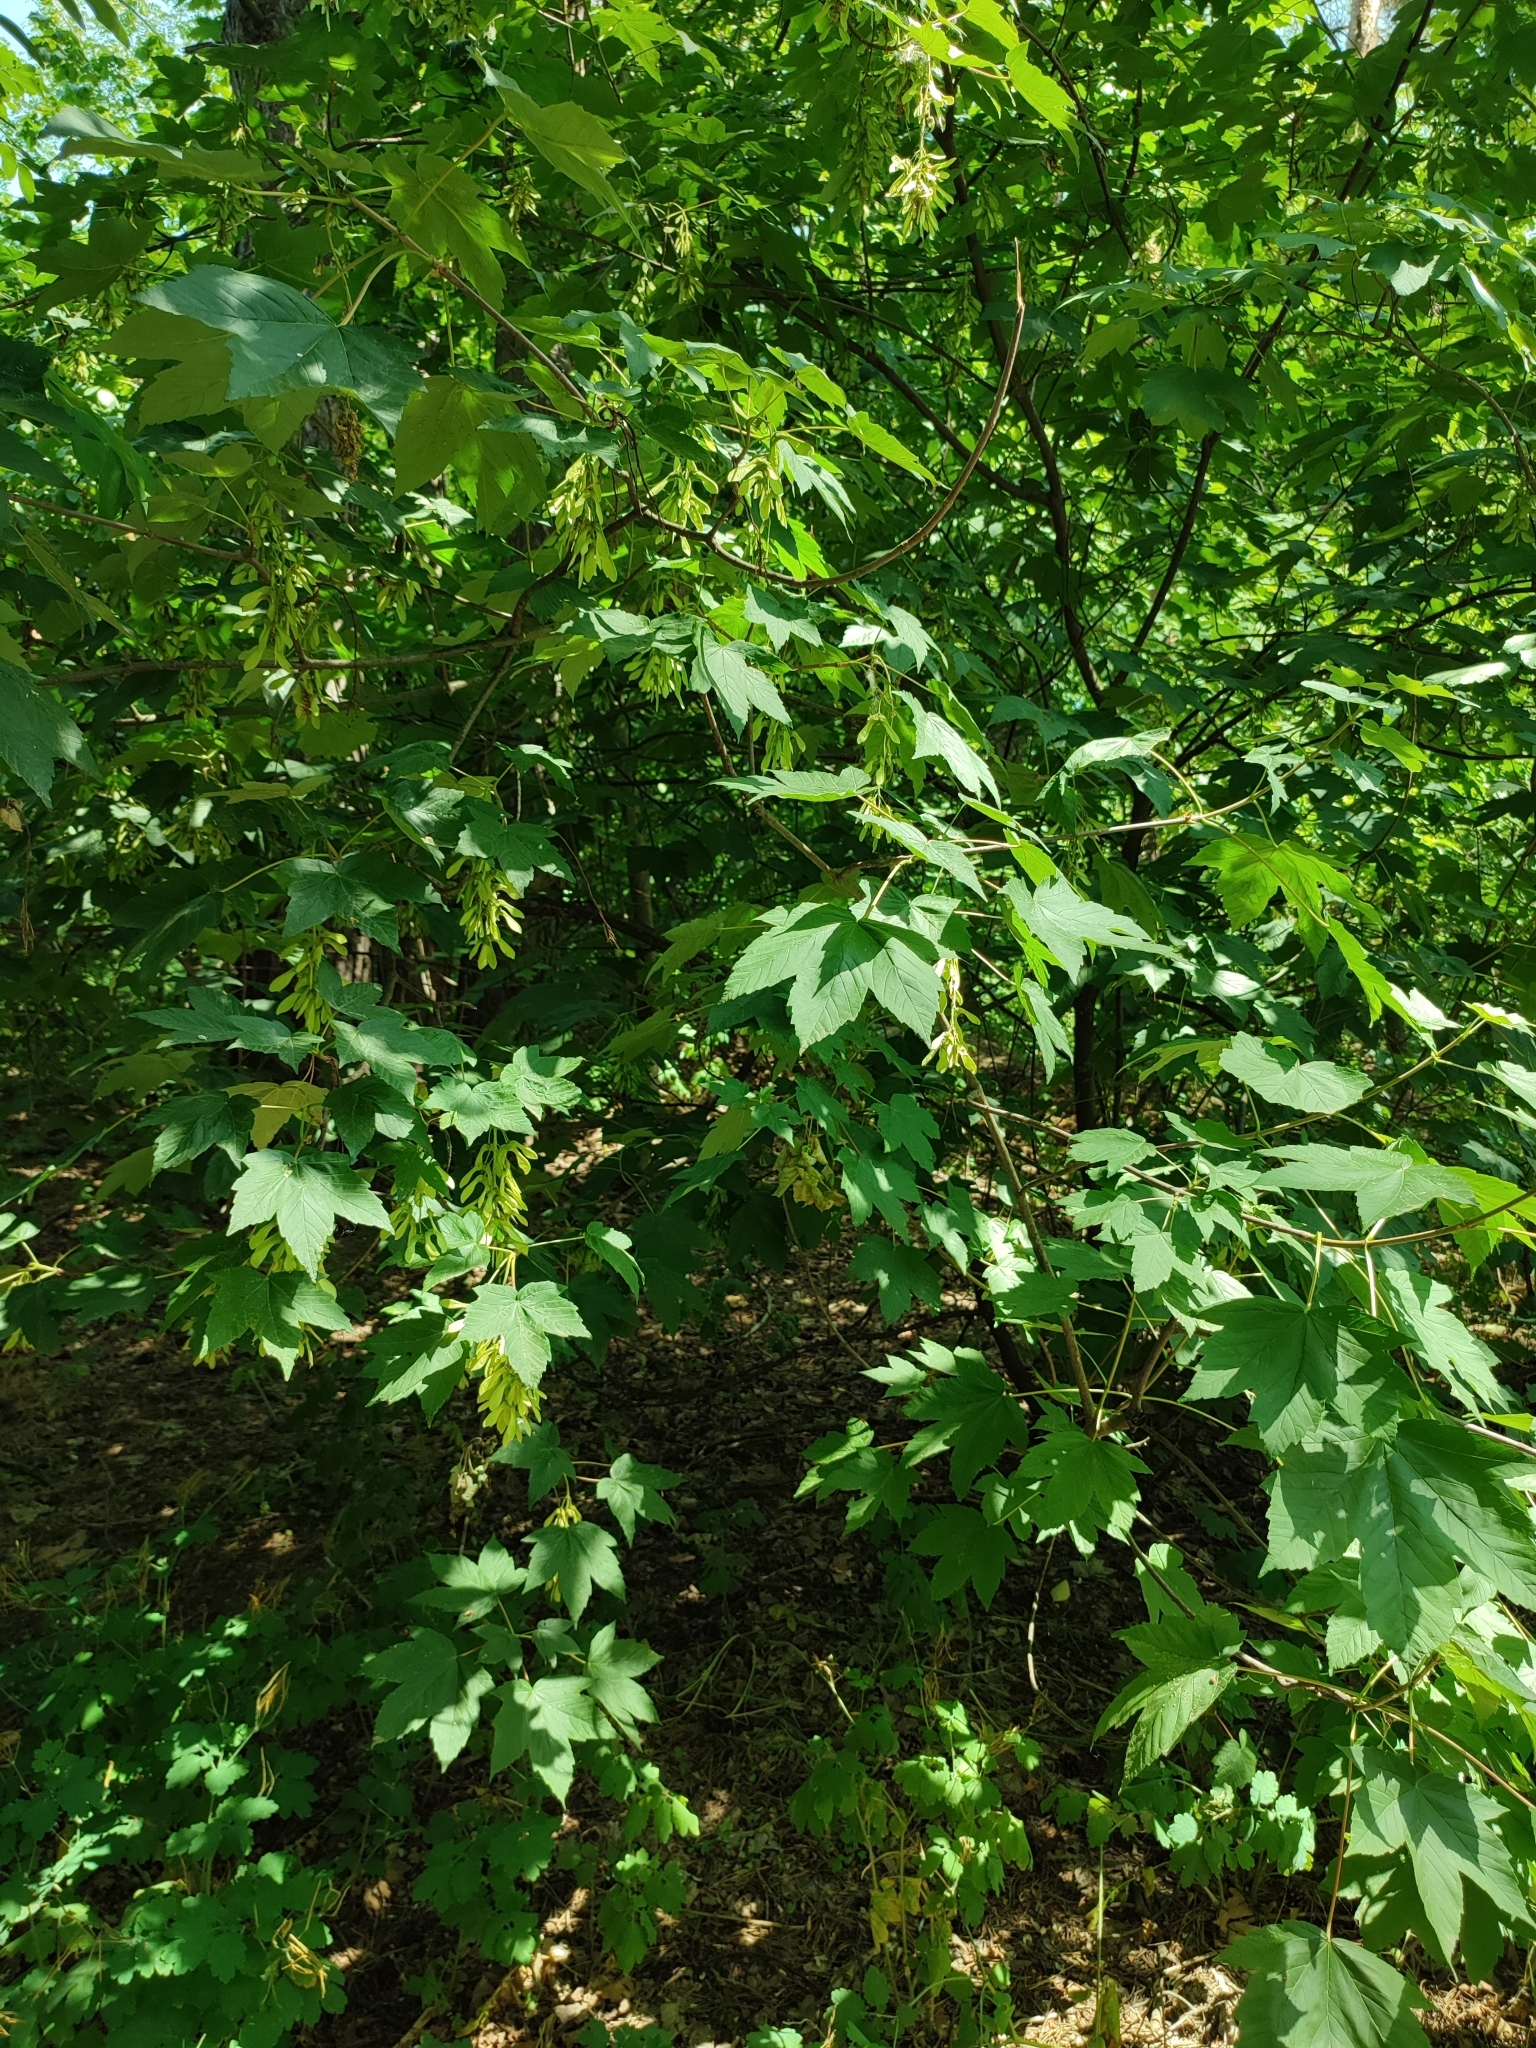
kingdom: Plantae
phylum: Tracheophyta
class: Magnoliopsida
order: Sapindales
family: Sapindaceae
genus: Acer
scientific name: Acer pseudoplatanus
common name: Sycamore
